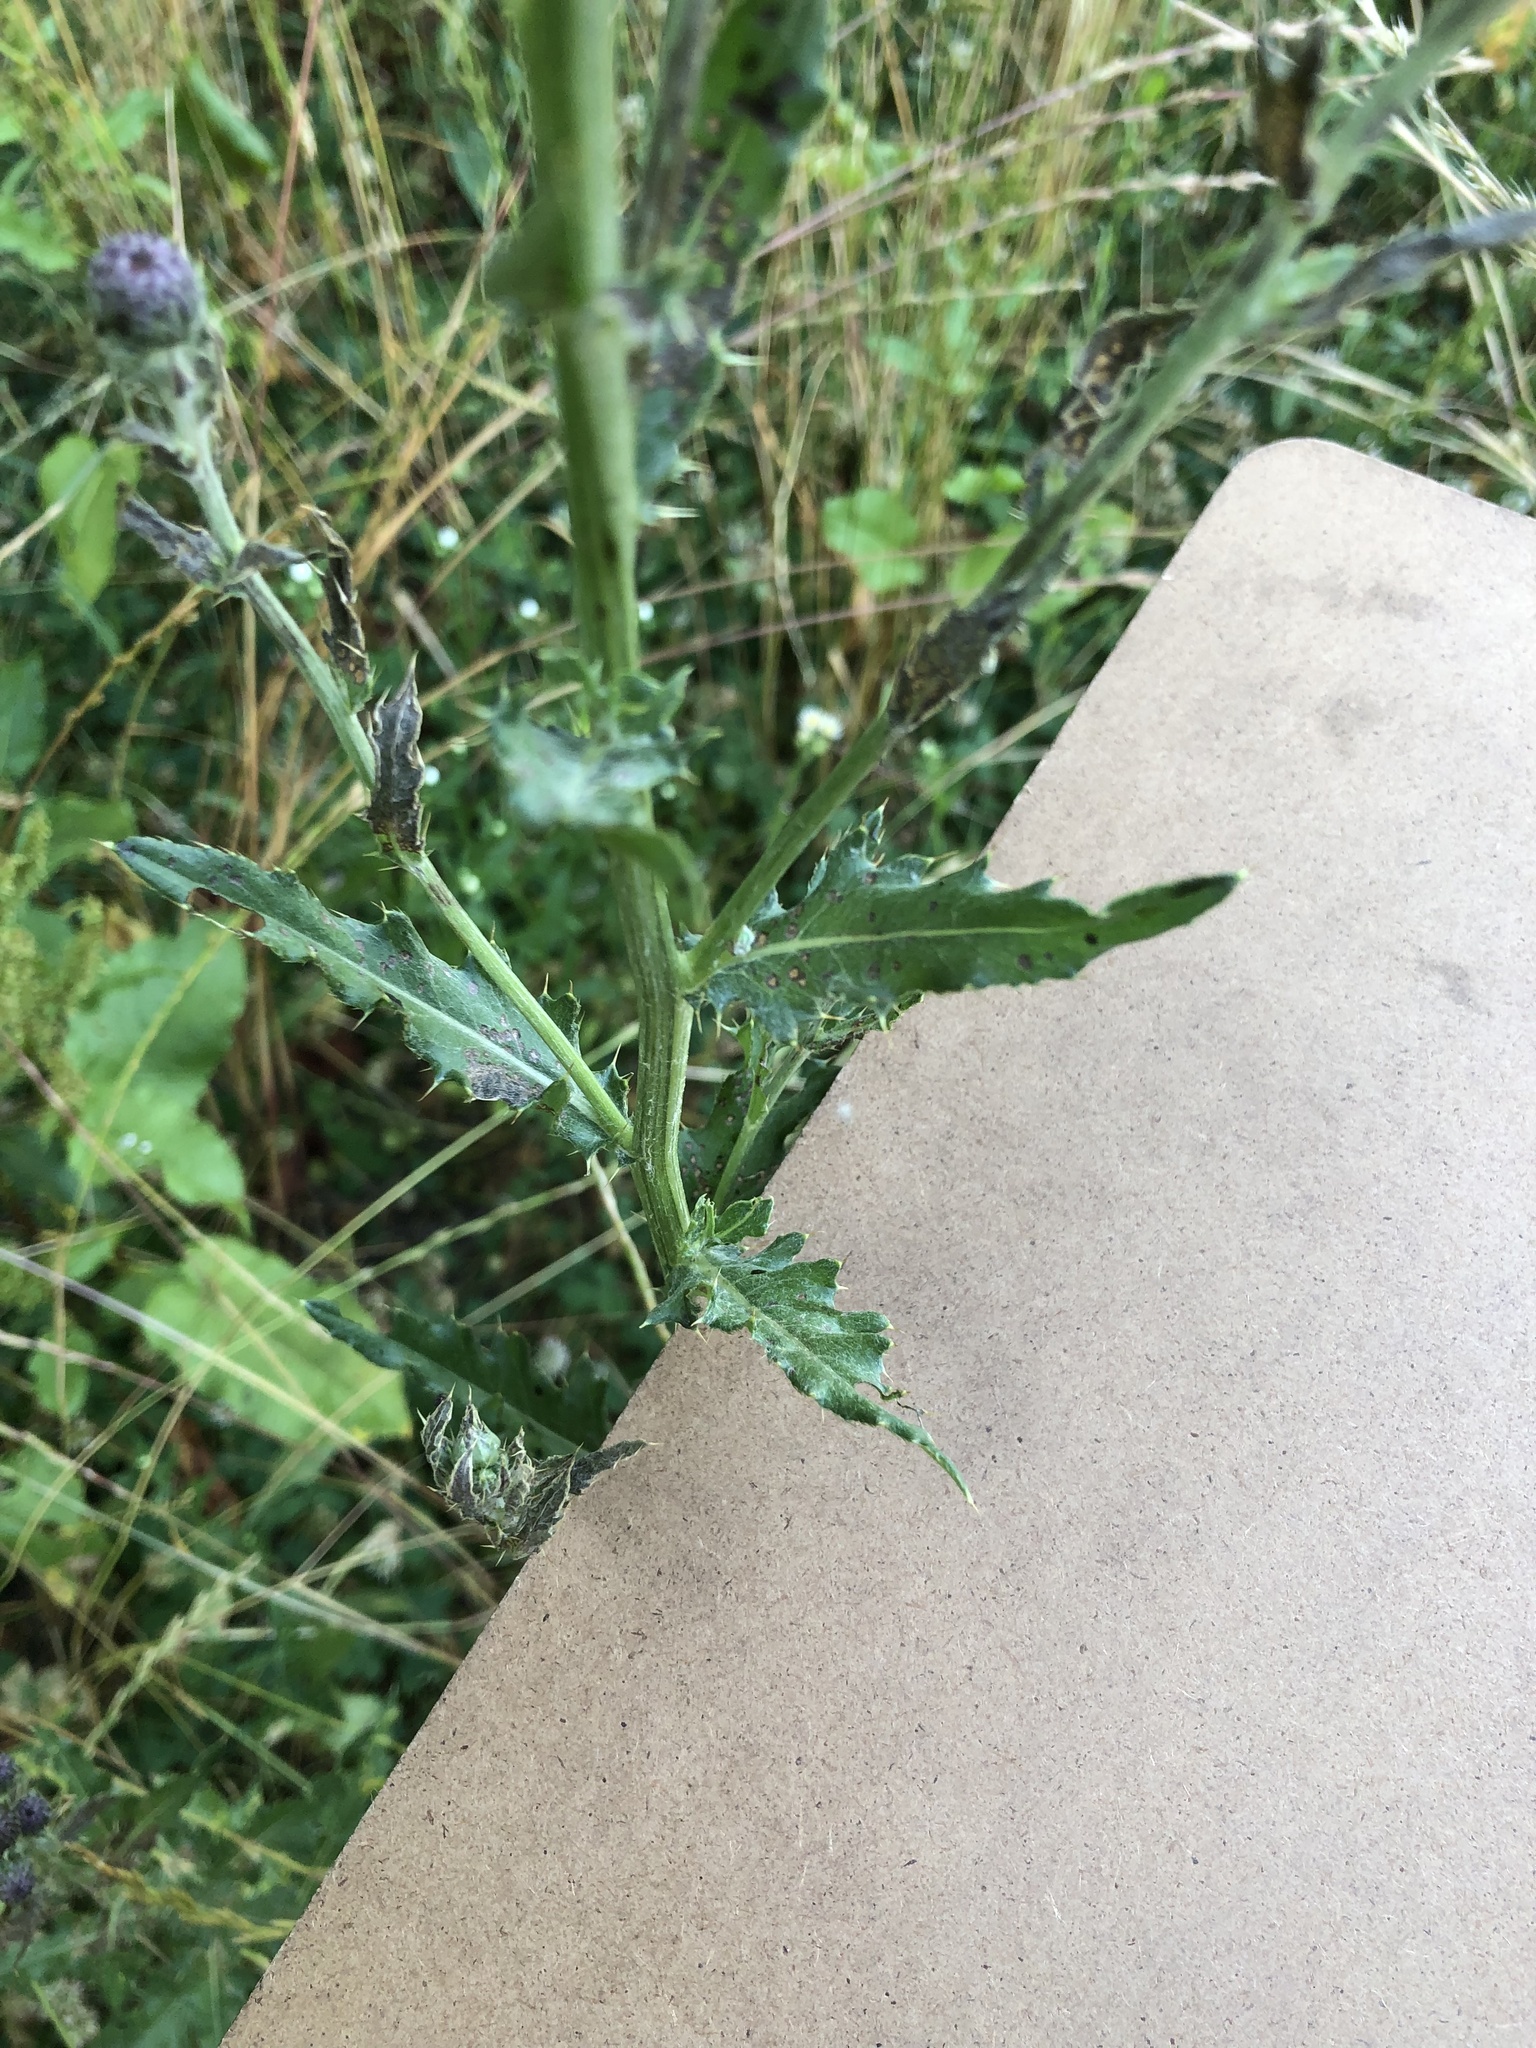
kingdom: Plantae
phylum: Tracheophyta
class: Magnoliopsida
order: Asterales
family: Asteraceae
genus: Cirsium
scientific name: Cirsium arvense
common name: Creeping thistle
